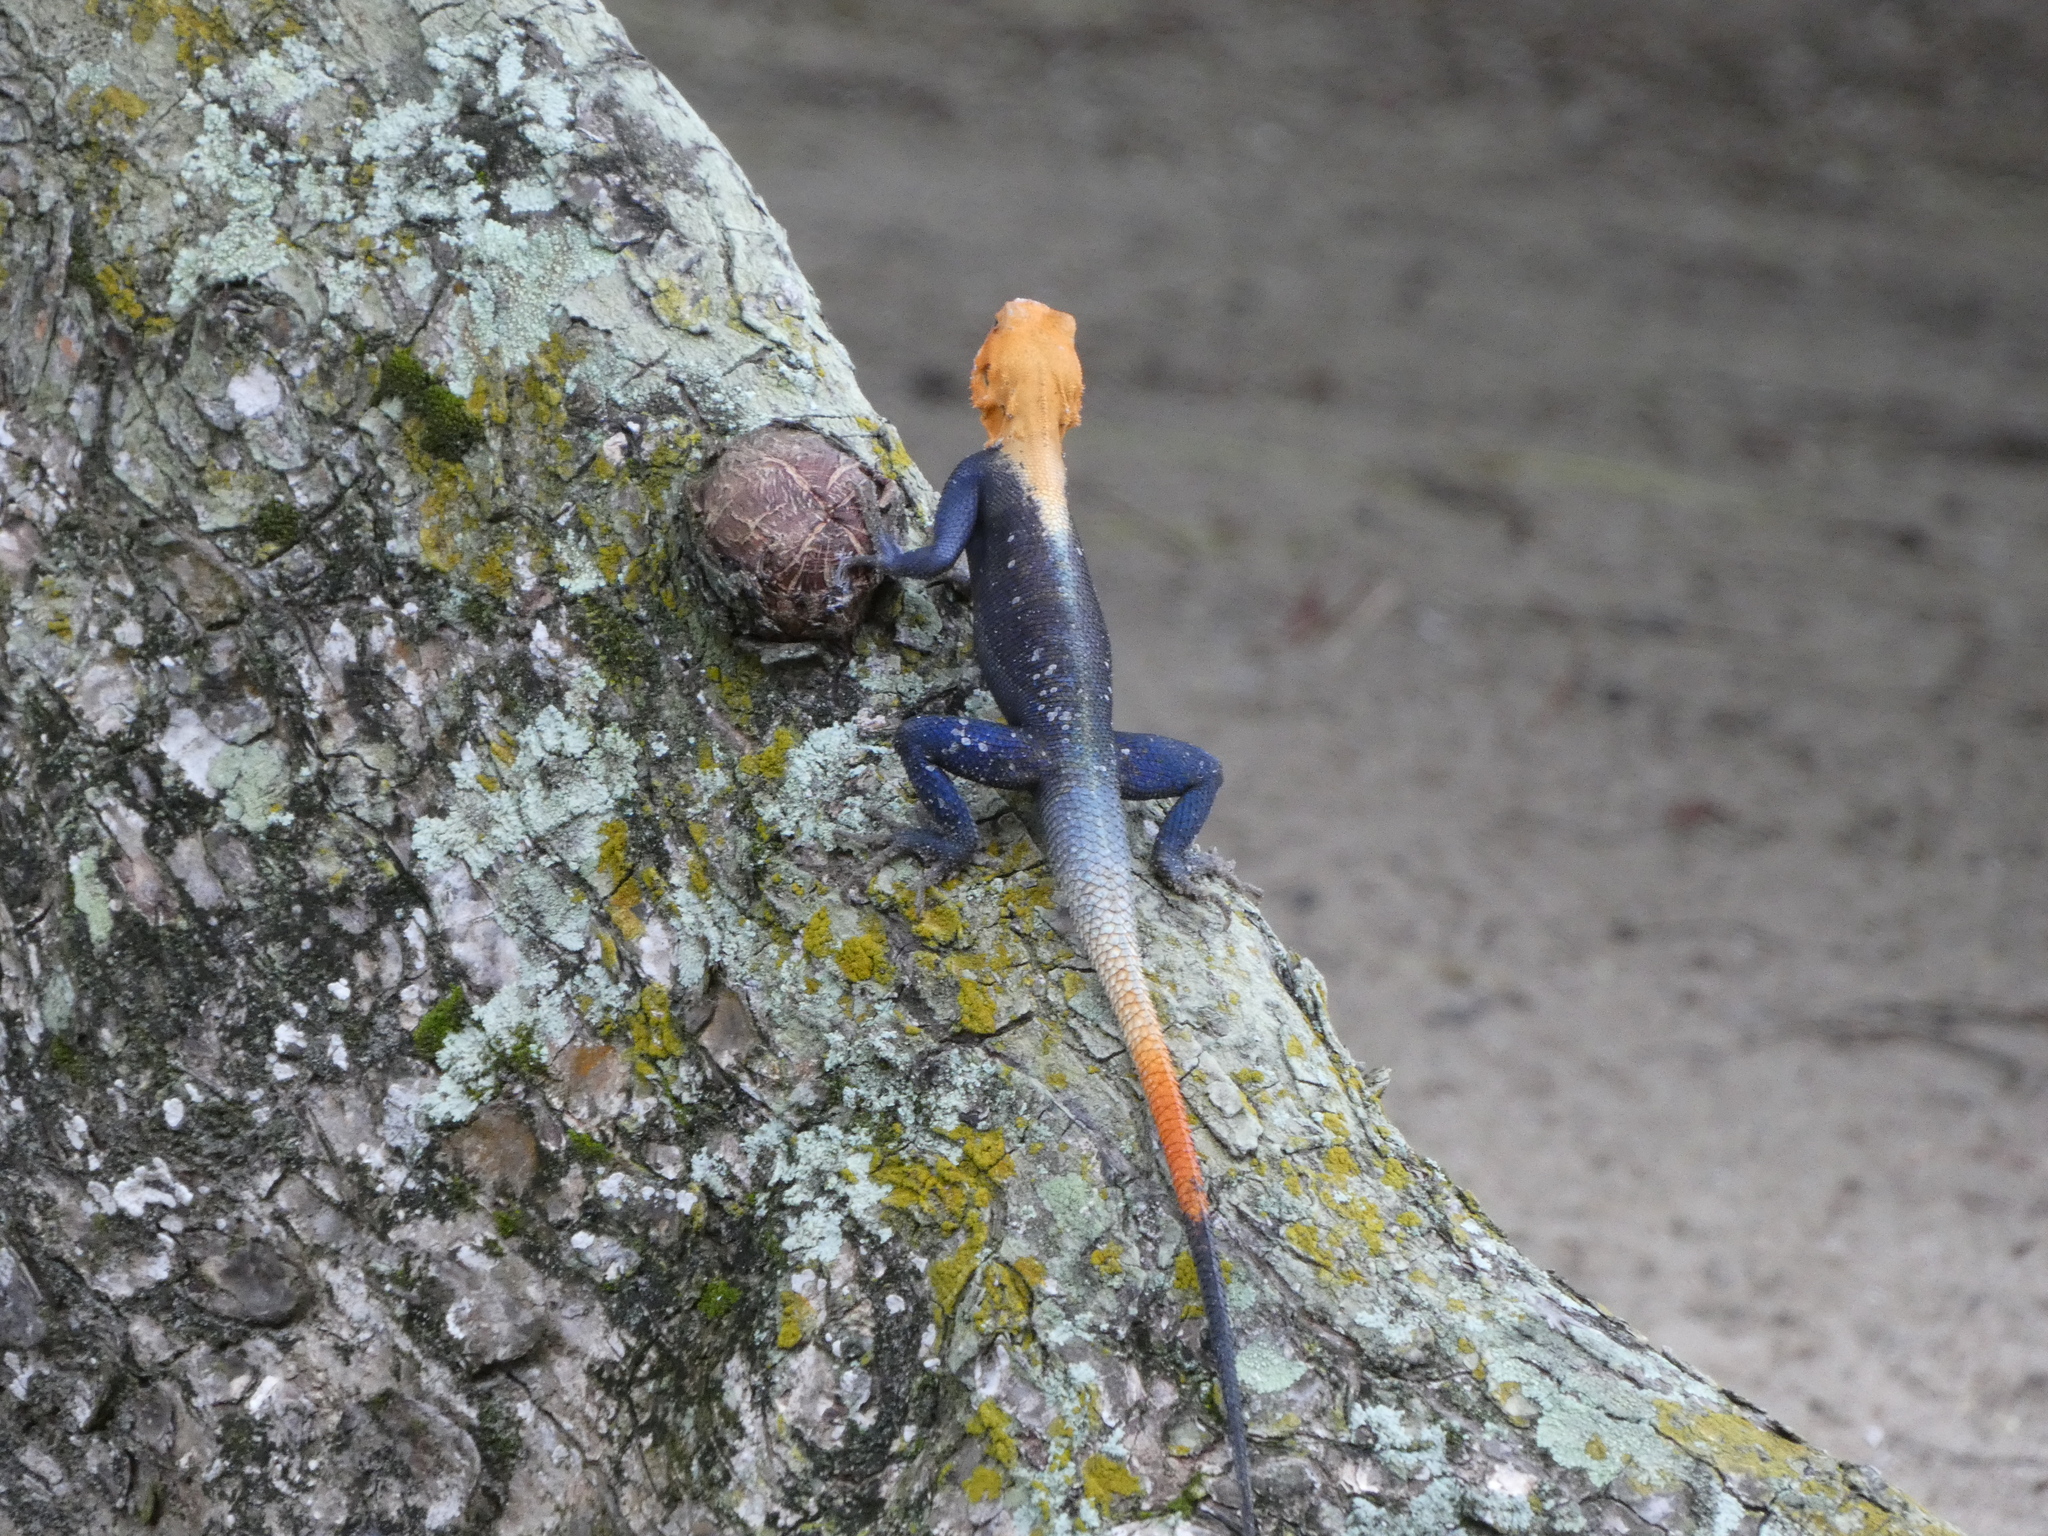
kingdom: Animalia
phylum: Chordata
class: Squamata
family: Agamidae
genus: Agama
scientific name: Agama picticauda
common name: Red-headed agama
